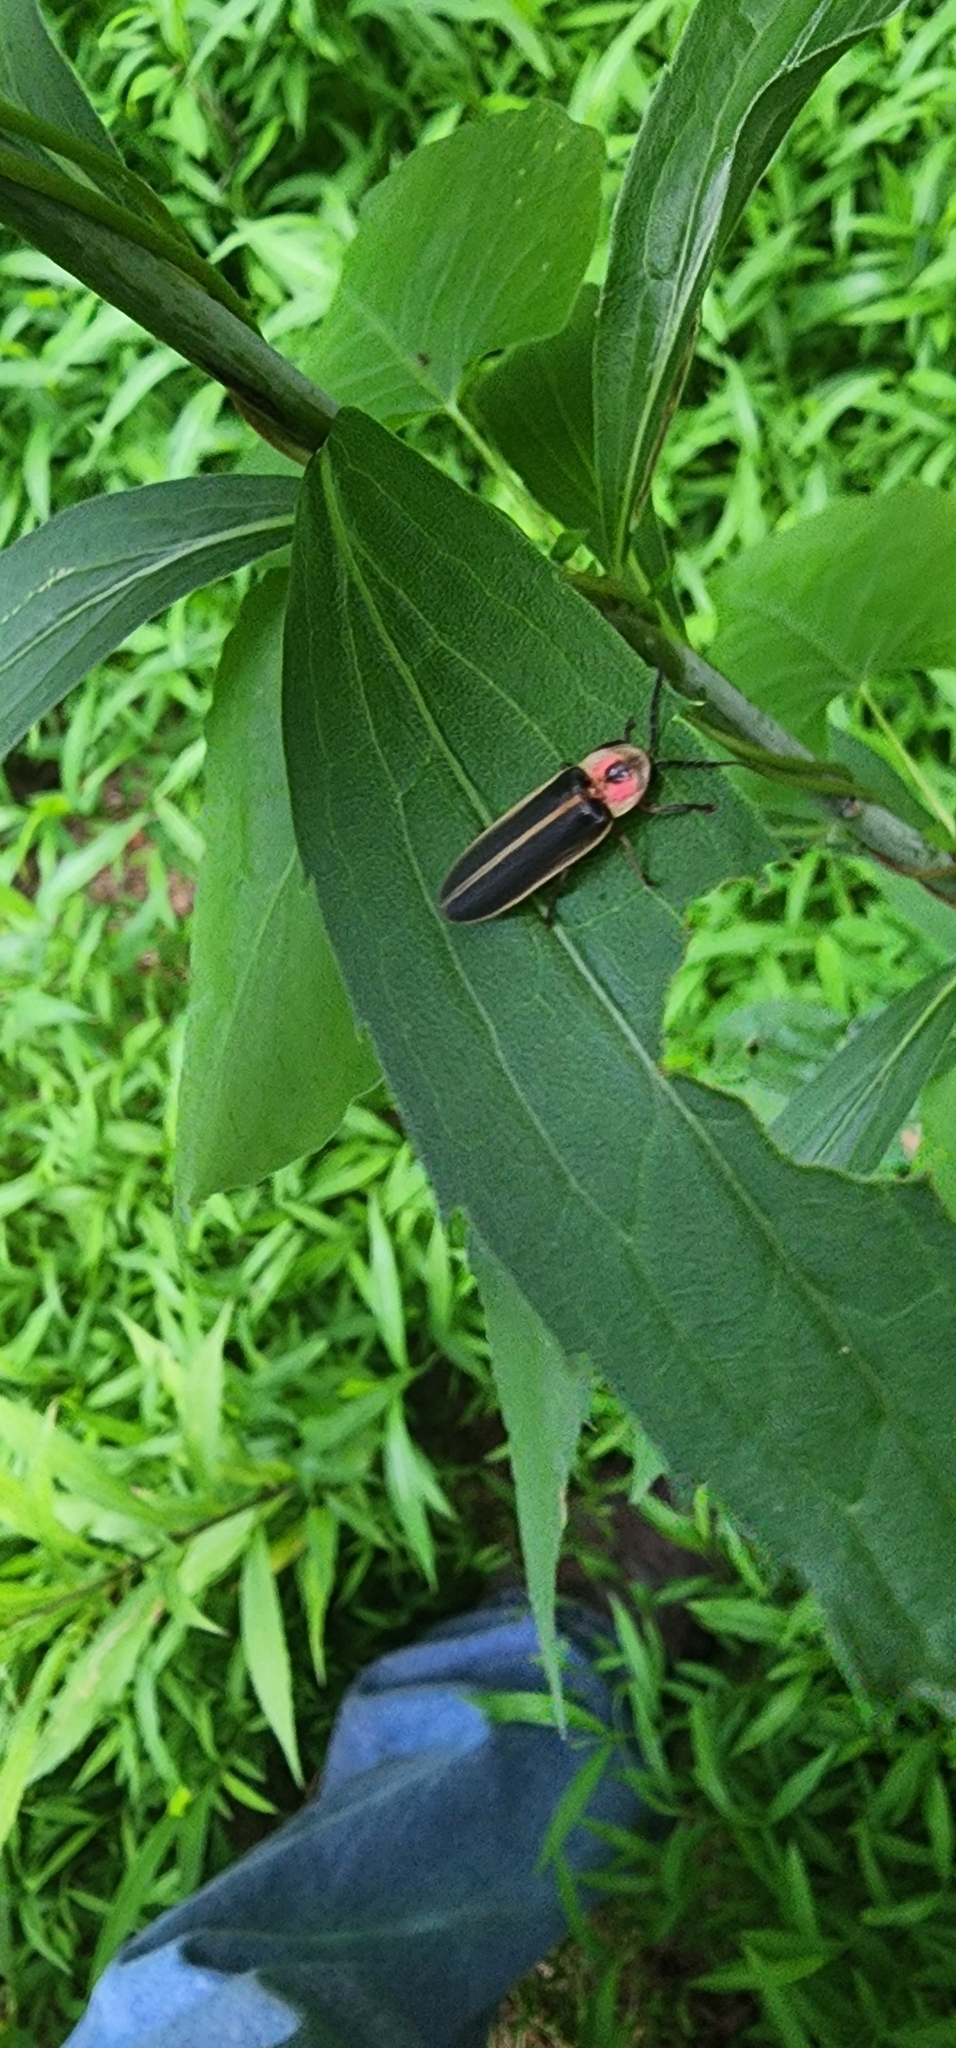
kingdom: Animalia
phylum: Arthropoda
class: Insecta
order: Coleoptera
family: Lampyridae
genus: Photinus
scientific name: Photinus pyralis
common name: Big dipper firefly
